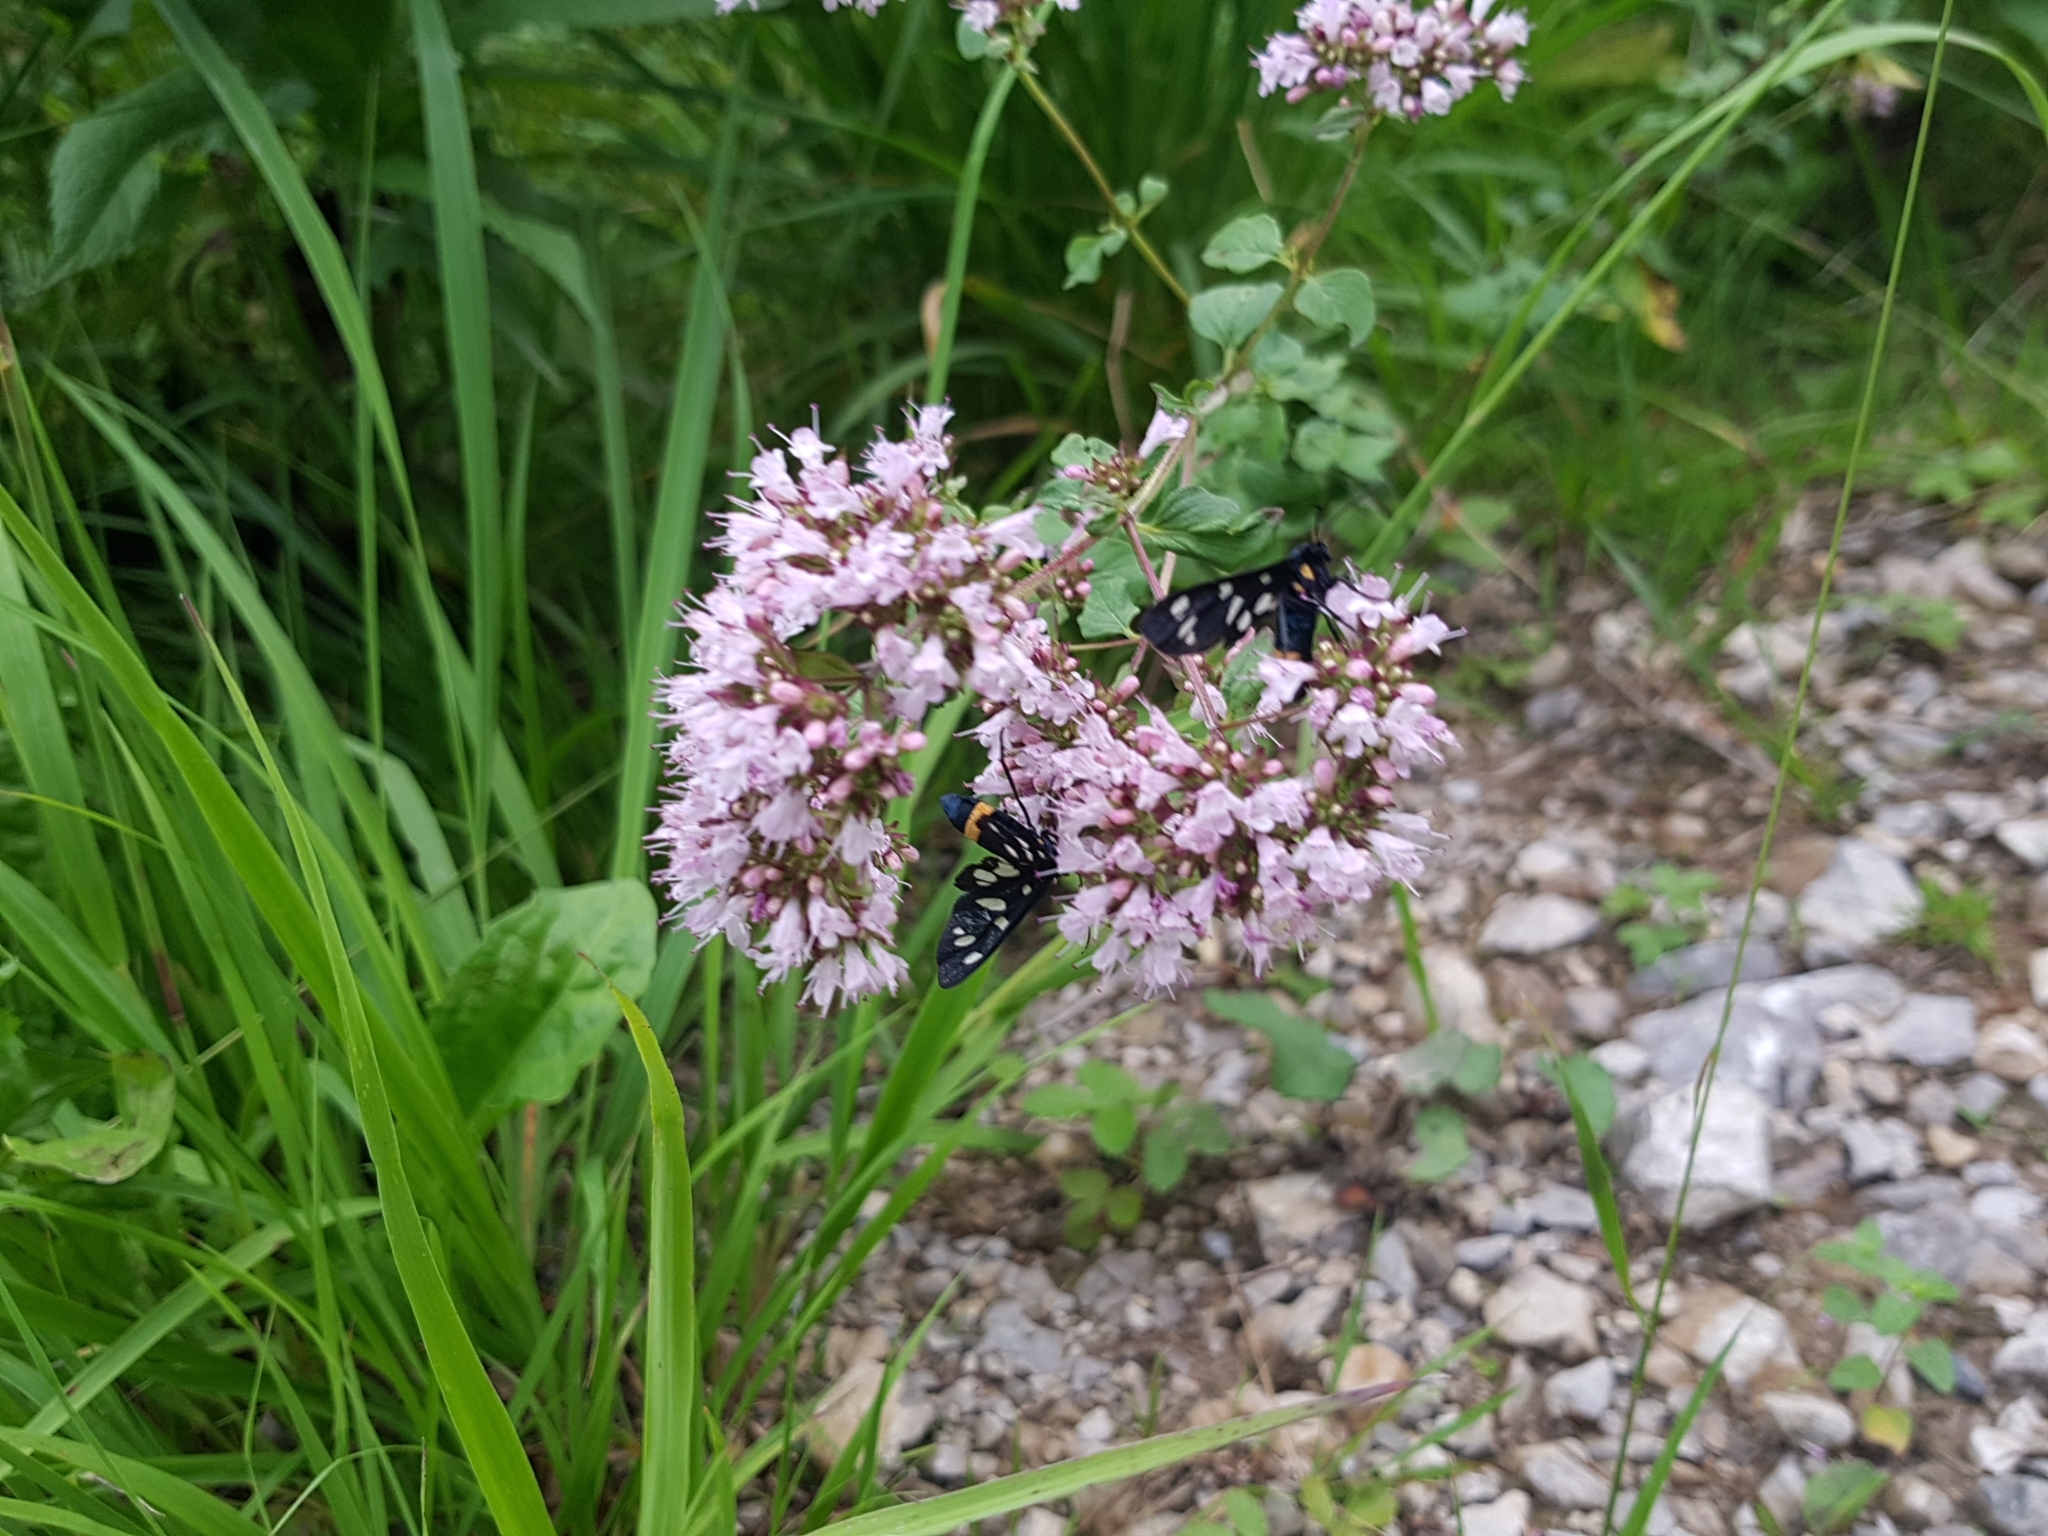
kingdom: Plantae
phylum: Tracheophyta
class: Magnoliopsida
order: Lamiales
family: Lamiaceae
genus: Origanum
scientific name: Origanum vulgare
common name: Wild marjoram
